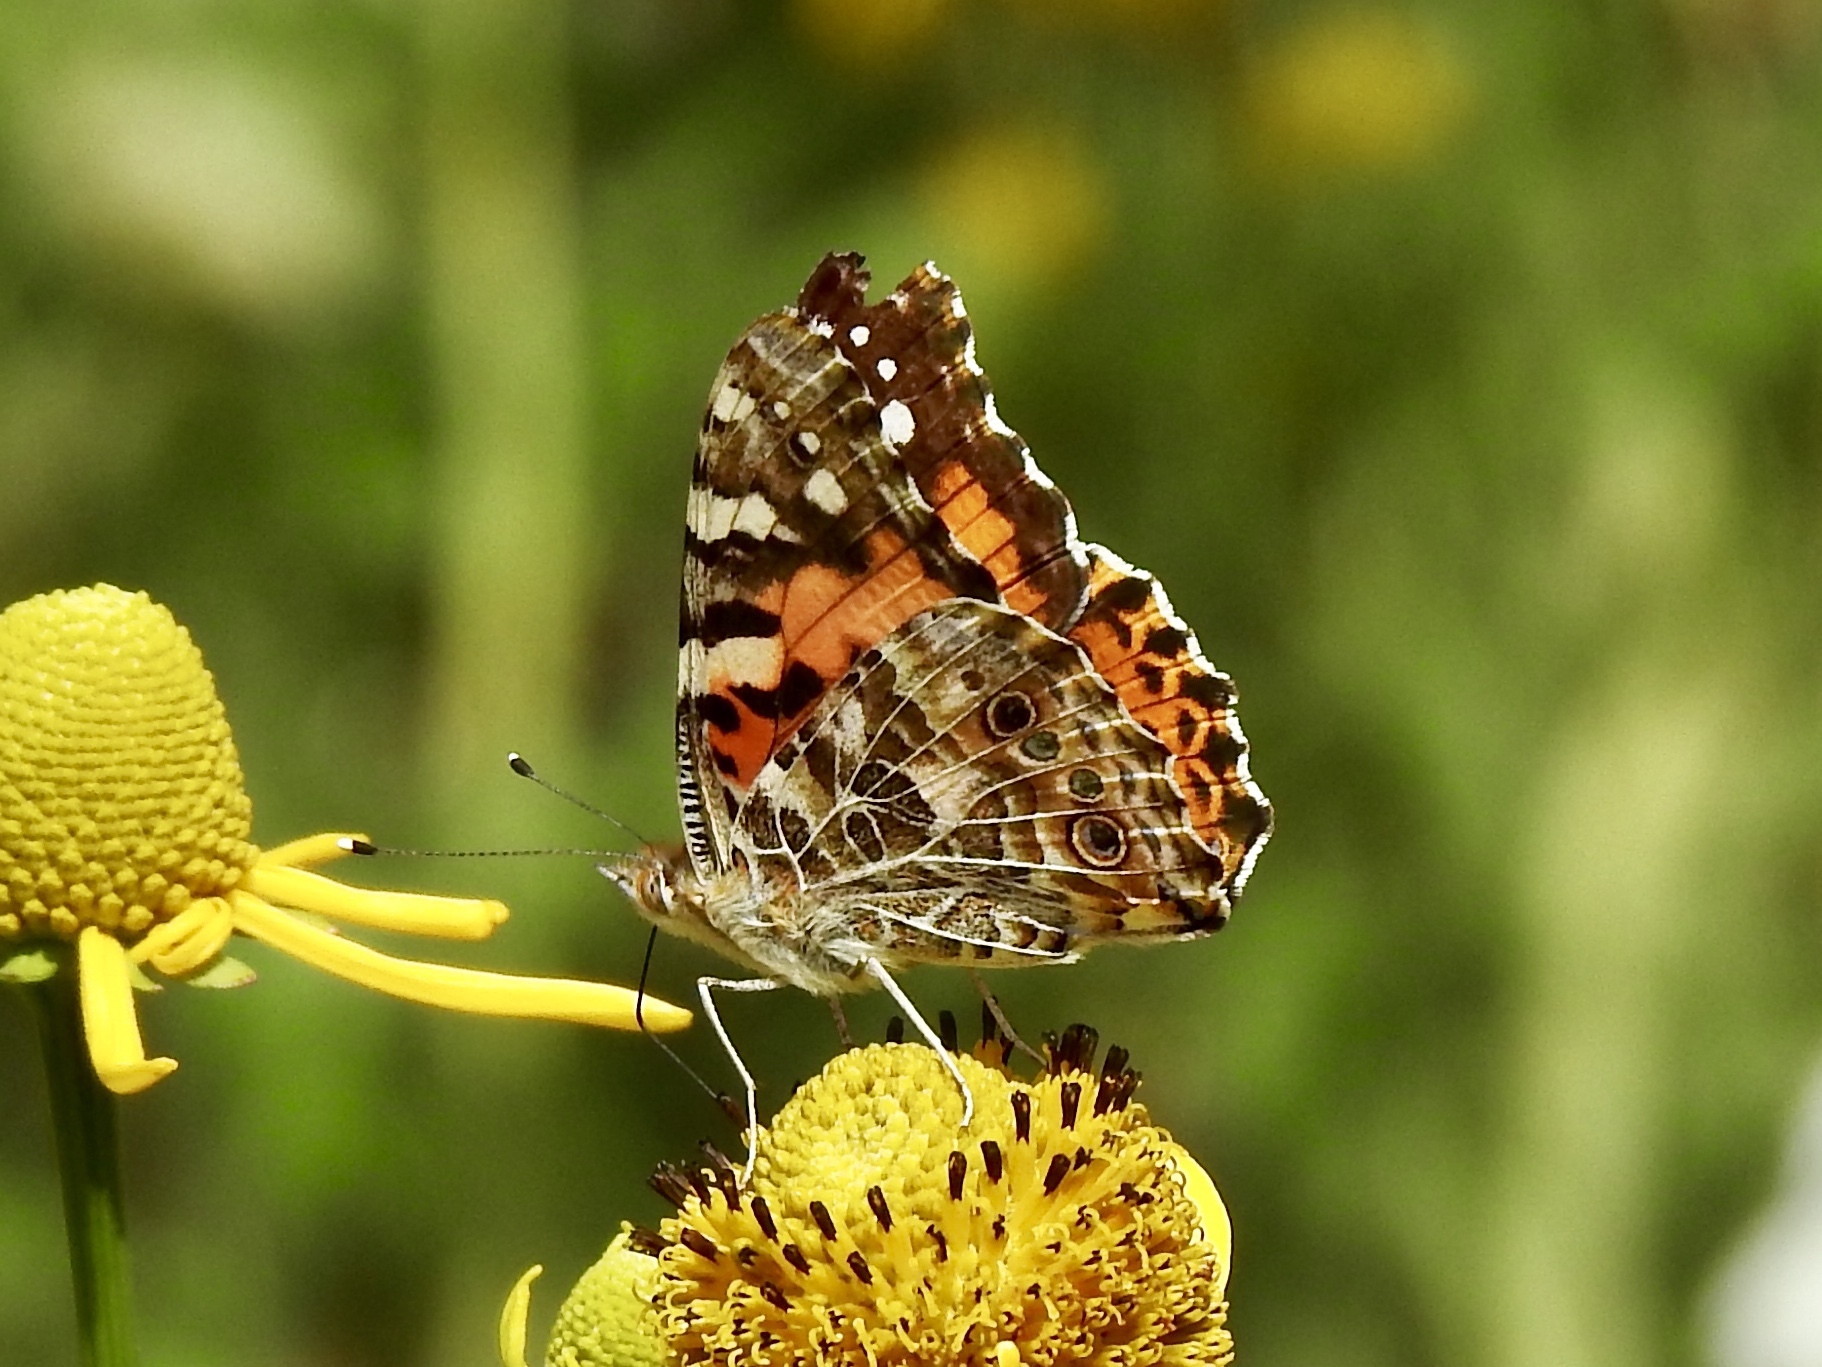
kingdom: Animalia
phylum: Arthropoda
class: Insecta
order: Lepidoptera
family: Nymphalidae
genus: Vanessa
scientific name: Vanessa cardui
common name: Painted lady
